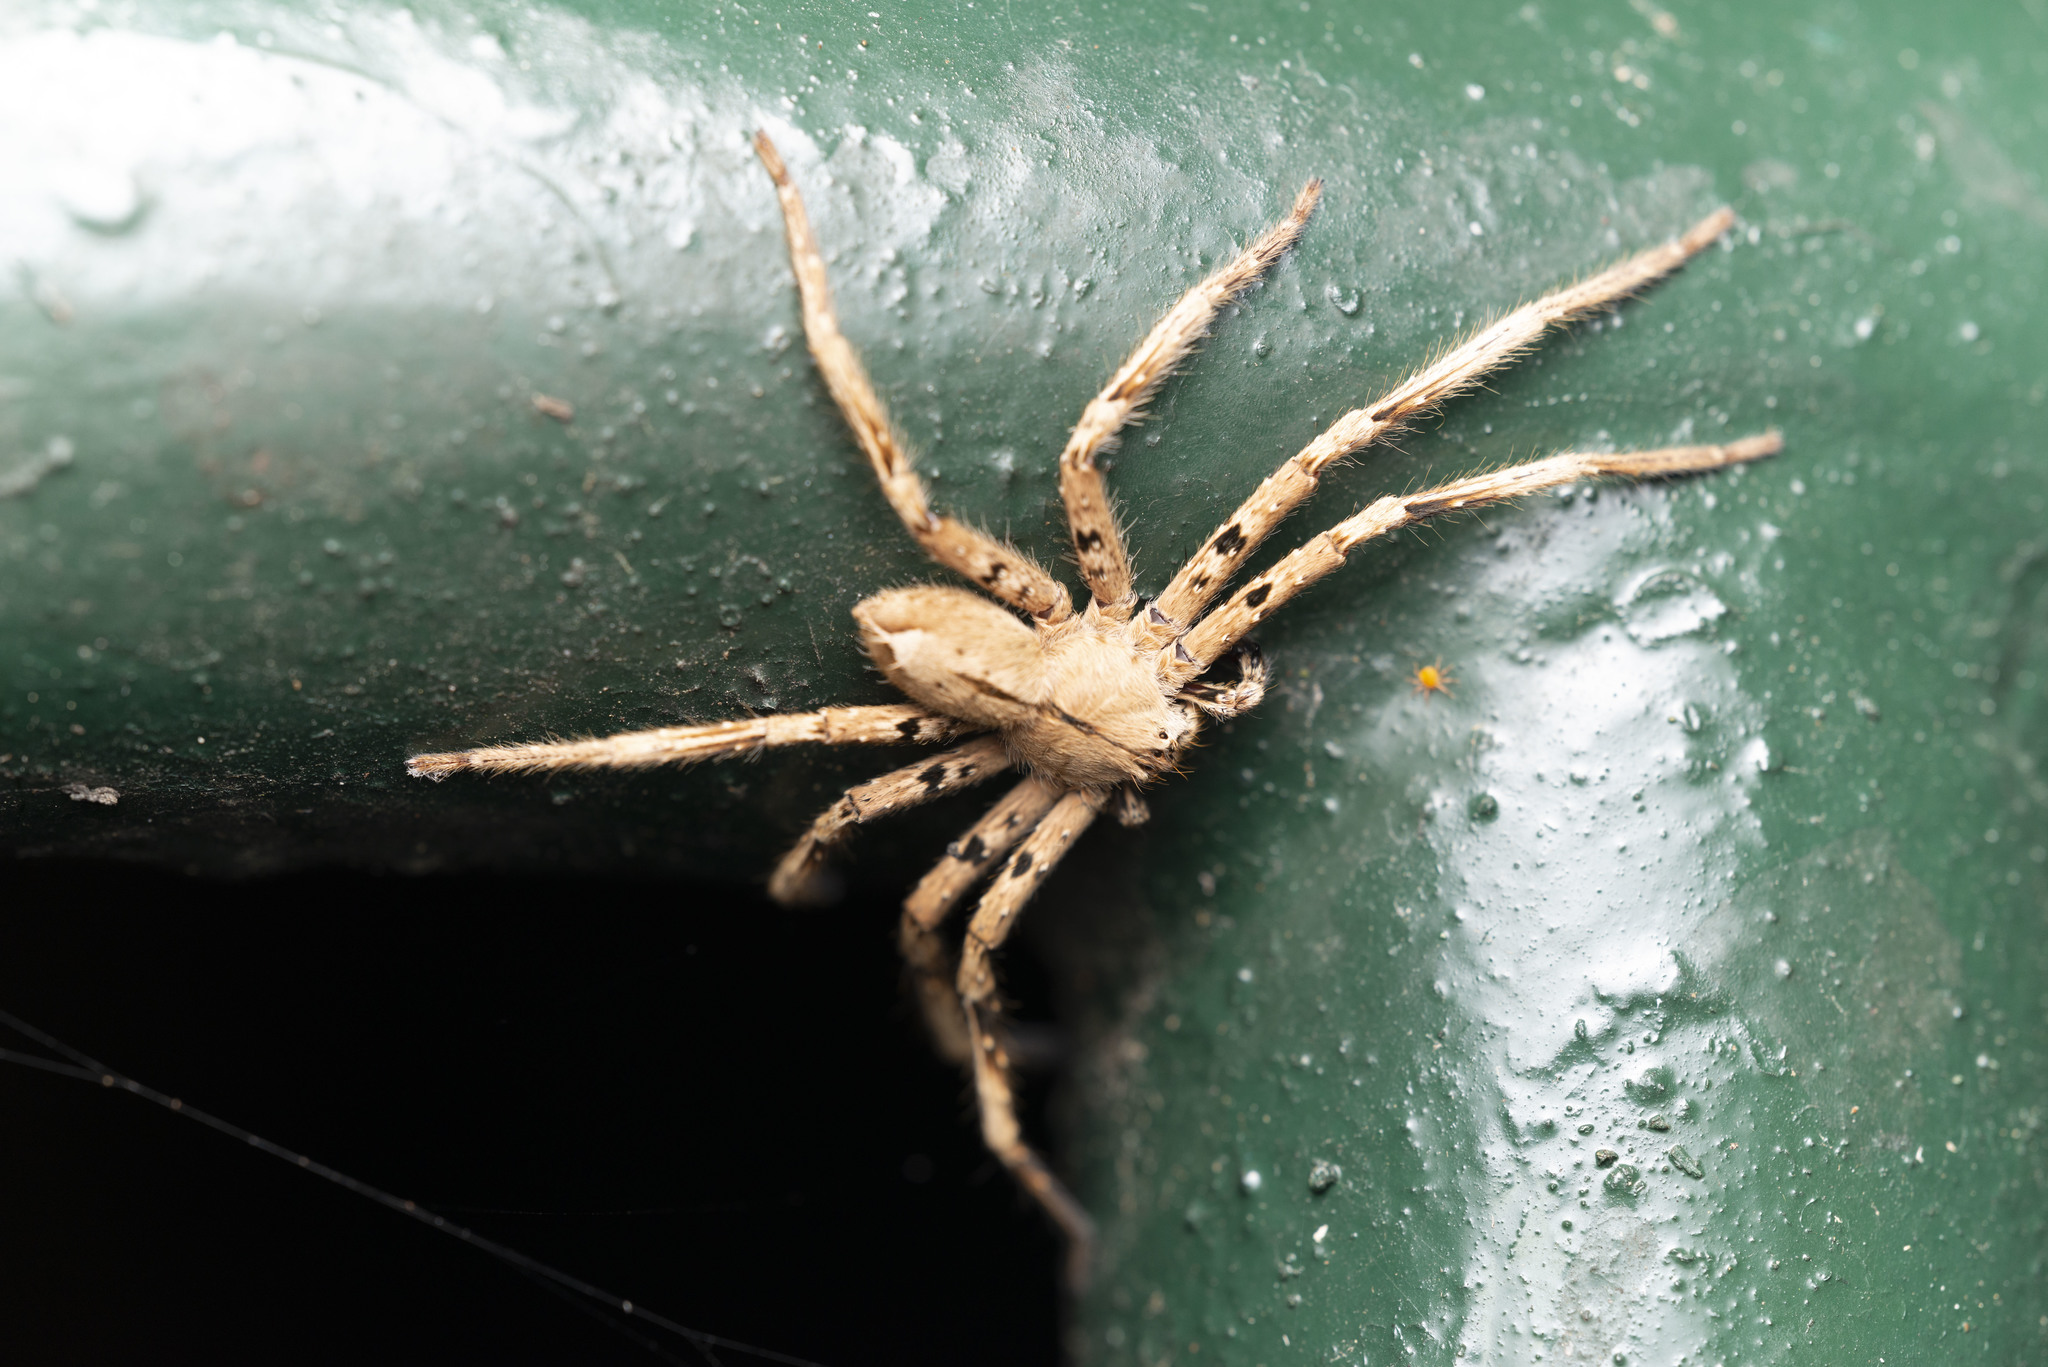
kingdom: Animalia
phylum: Arthropoda
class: Arachnida
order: Araneae
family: Sparassidae
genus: Heteropoda
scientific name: Heteropoda pingtungensis
